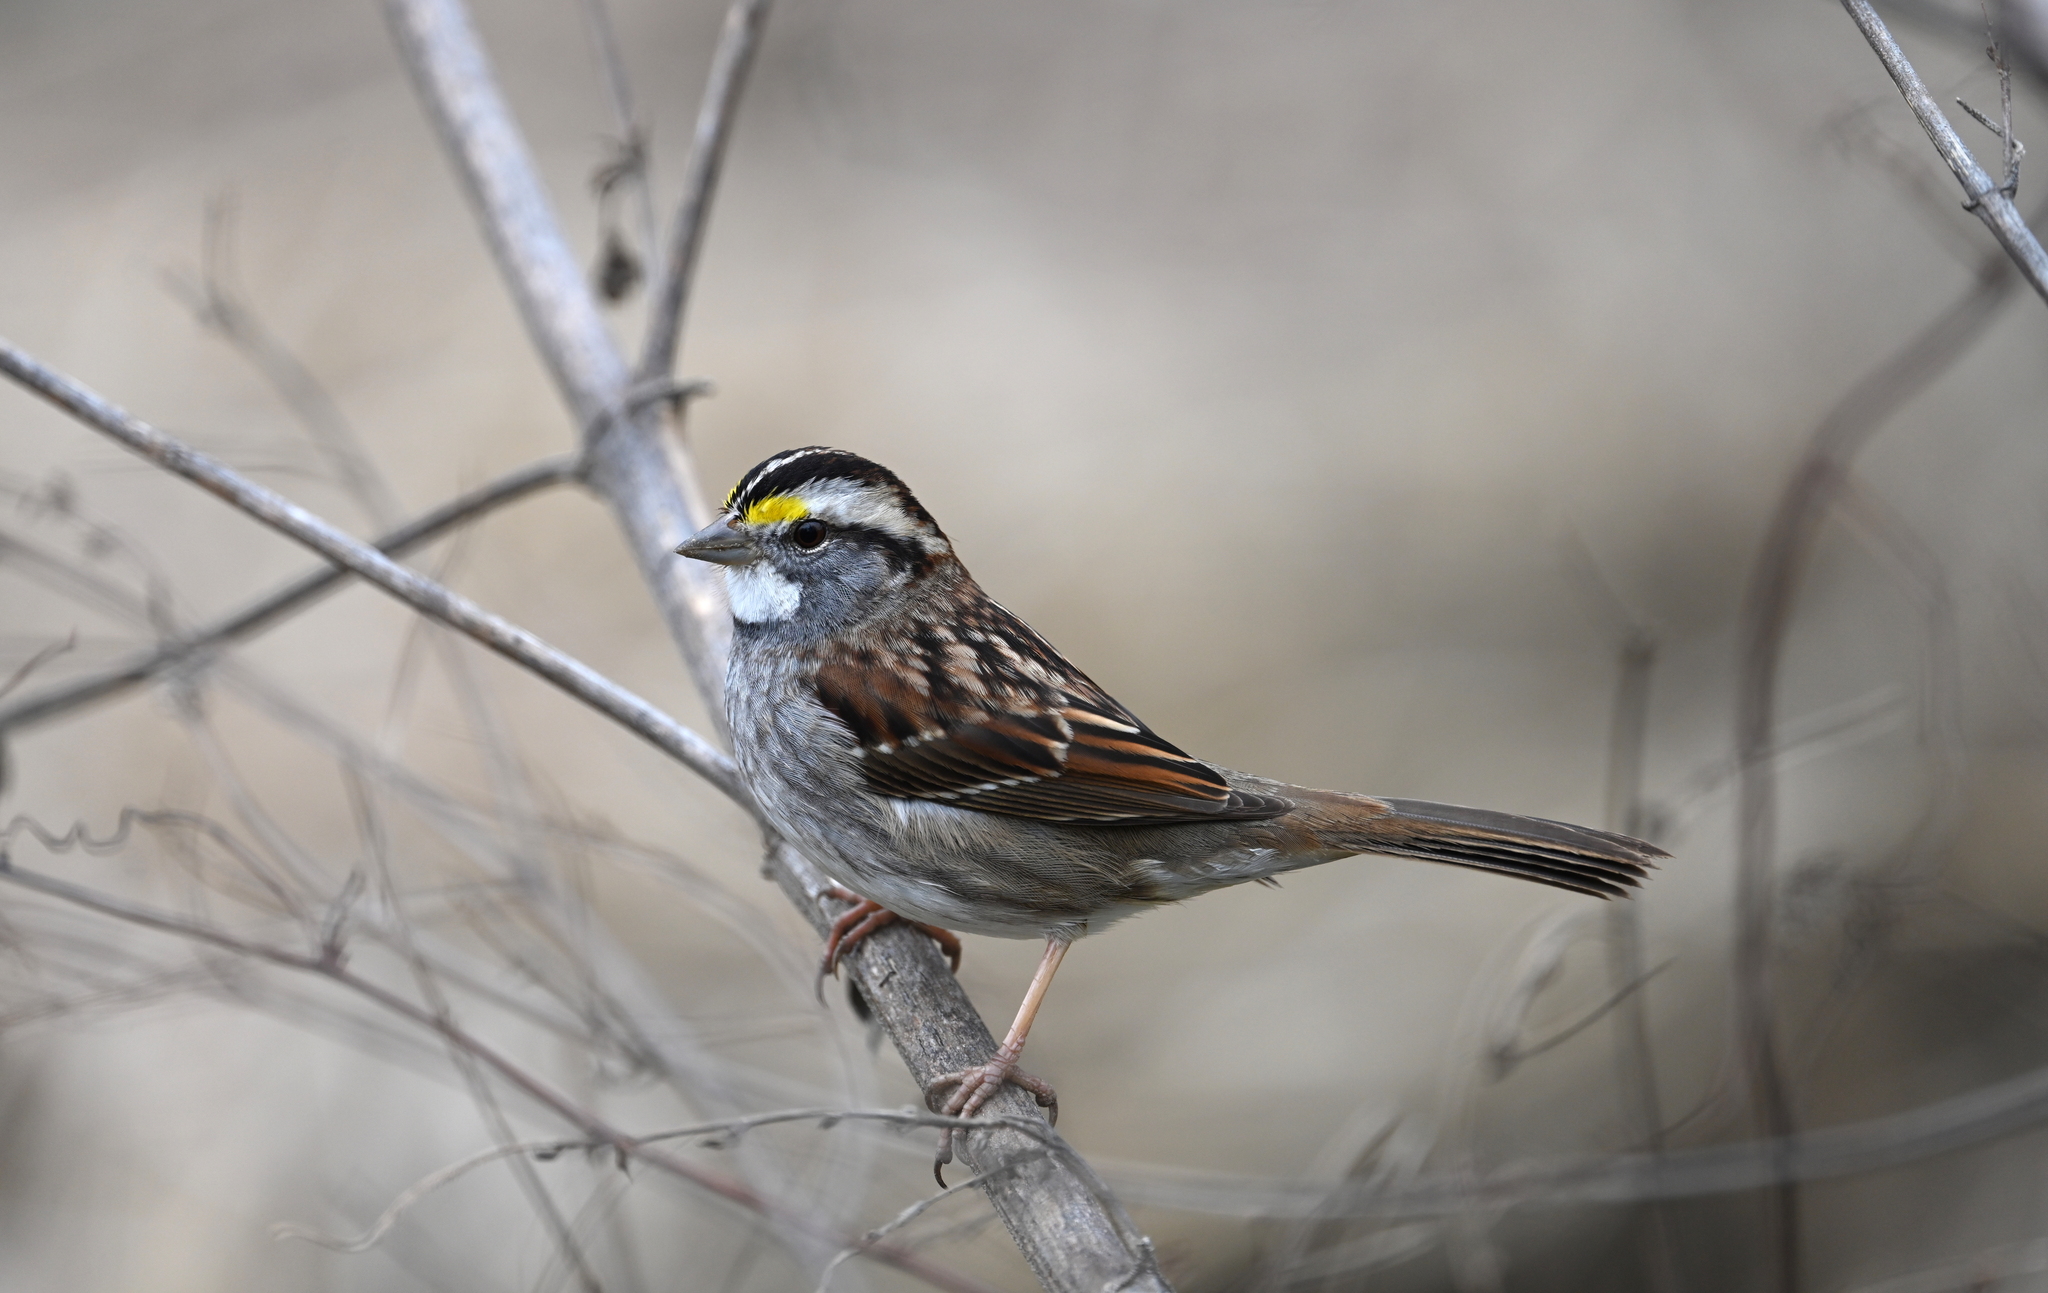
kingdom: Animalia
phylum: Chordata
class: Aves
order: Passeriformes
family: Passerellidae
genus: Zonotrichia
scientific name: Zonotrichia albicollis
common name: White-throated sparrow
